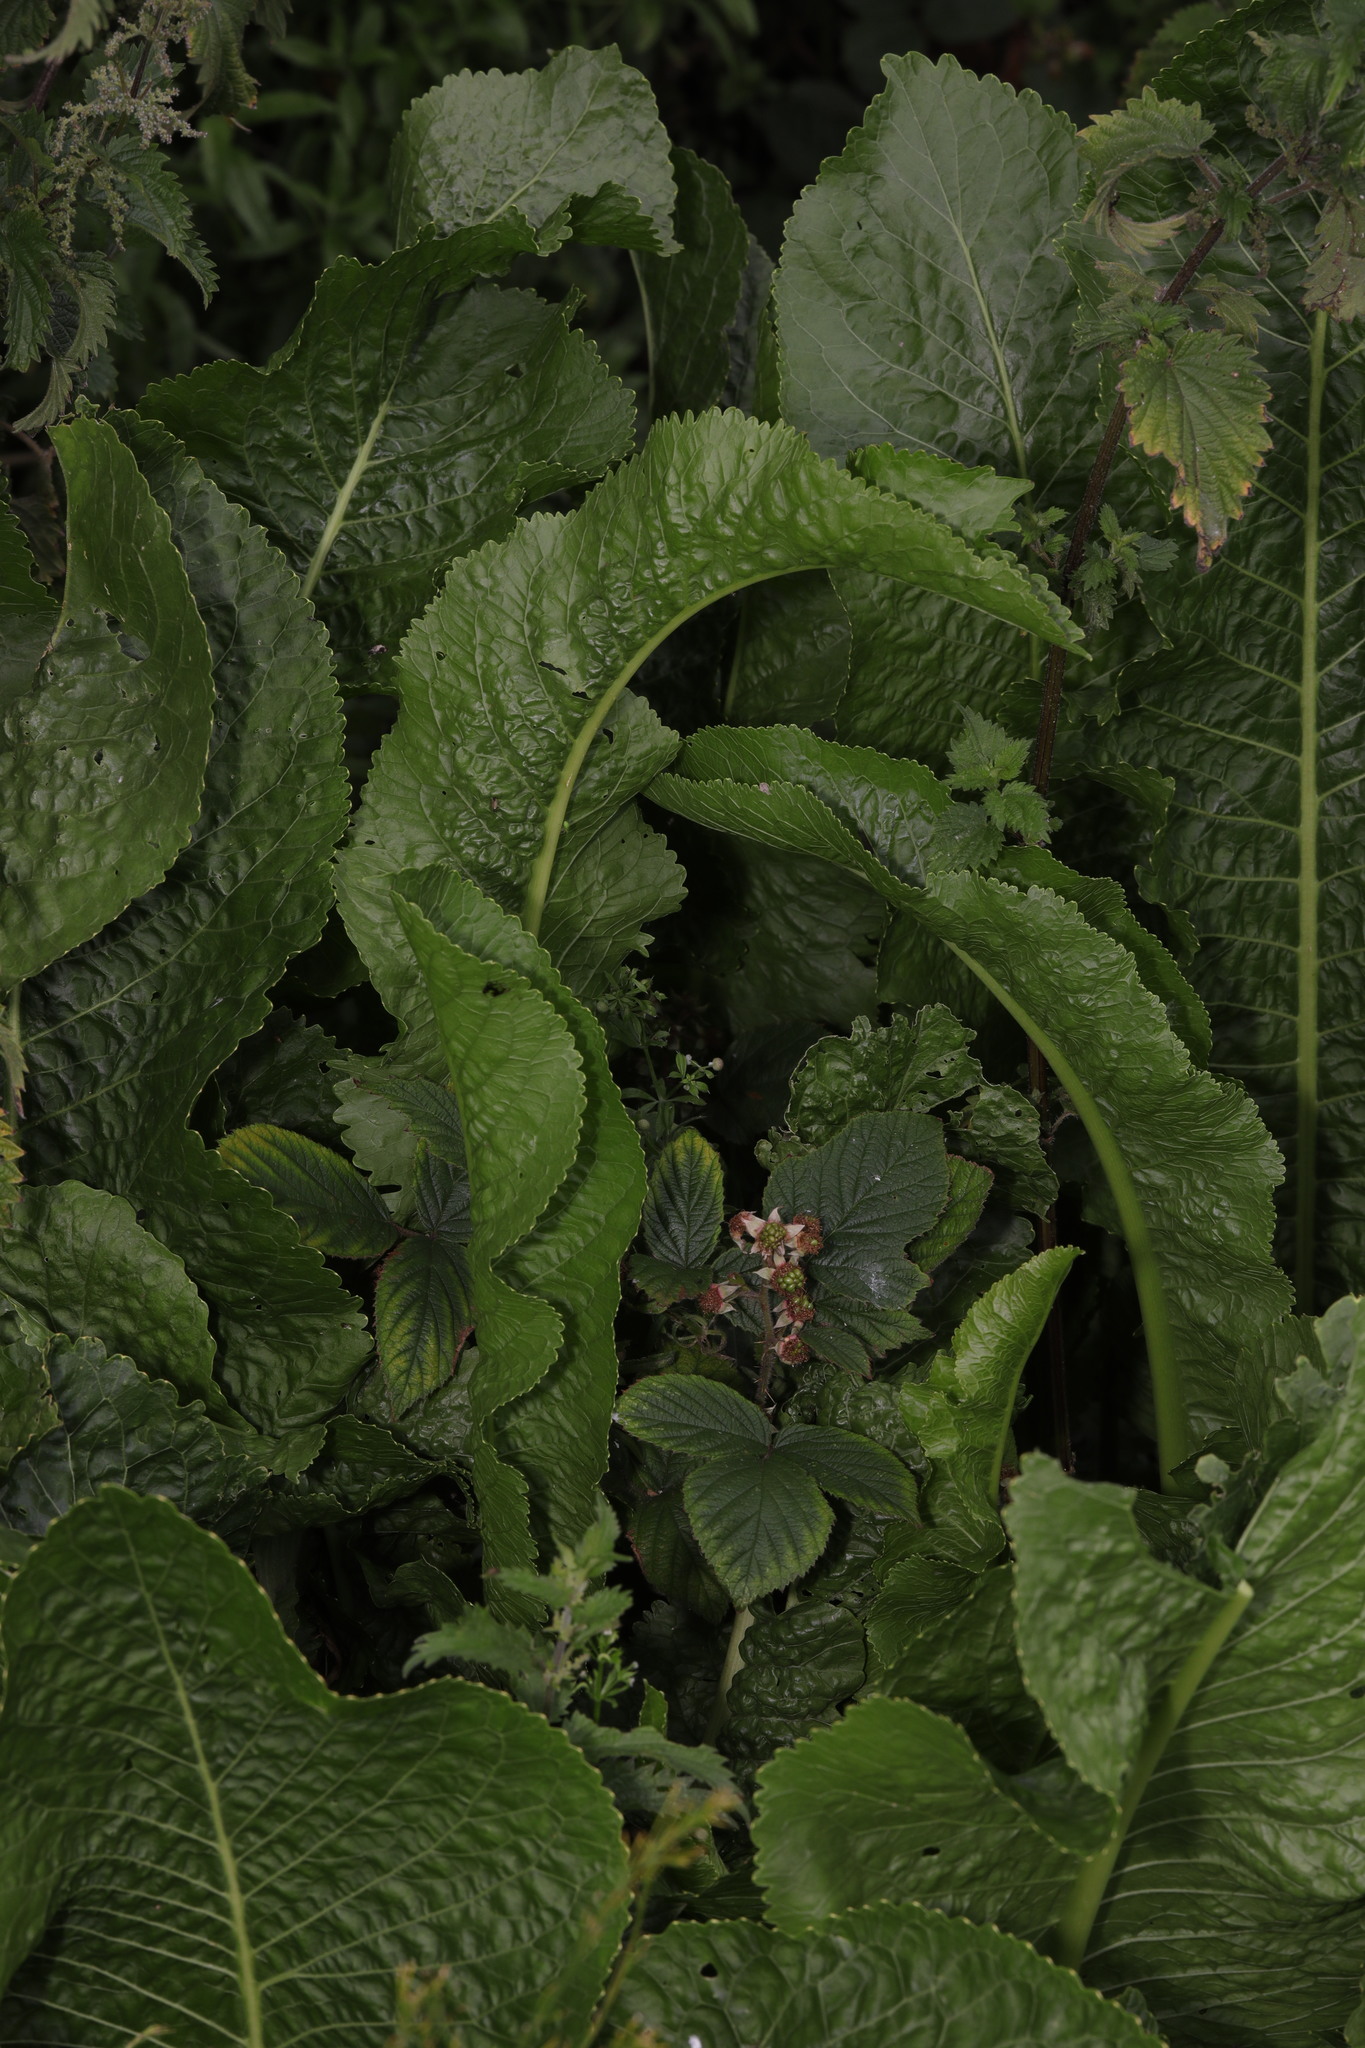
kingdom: Plantae
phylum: Tracheophyta
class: Magnoliopsida
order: Brassicales
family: Brassicaceae
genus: Armoracia
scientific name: Armoracia rusticana
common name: Horseradish
